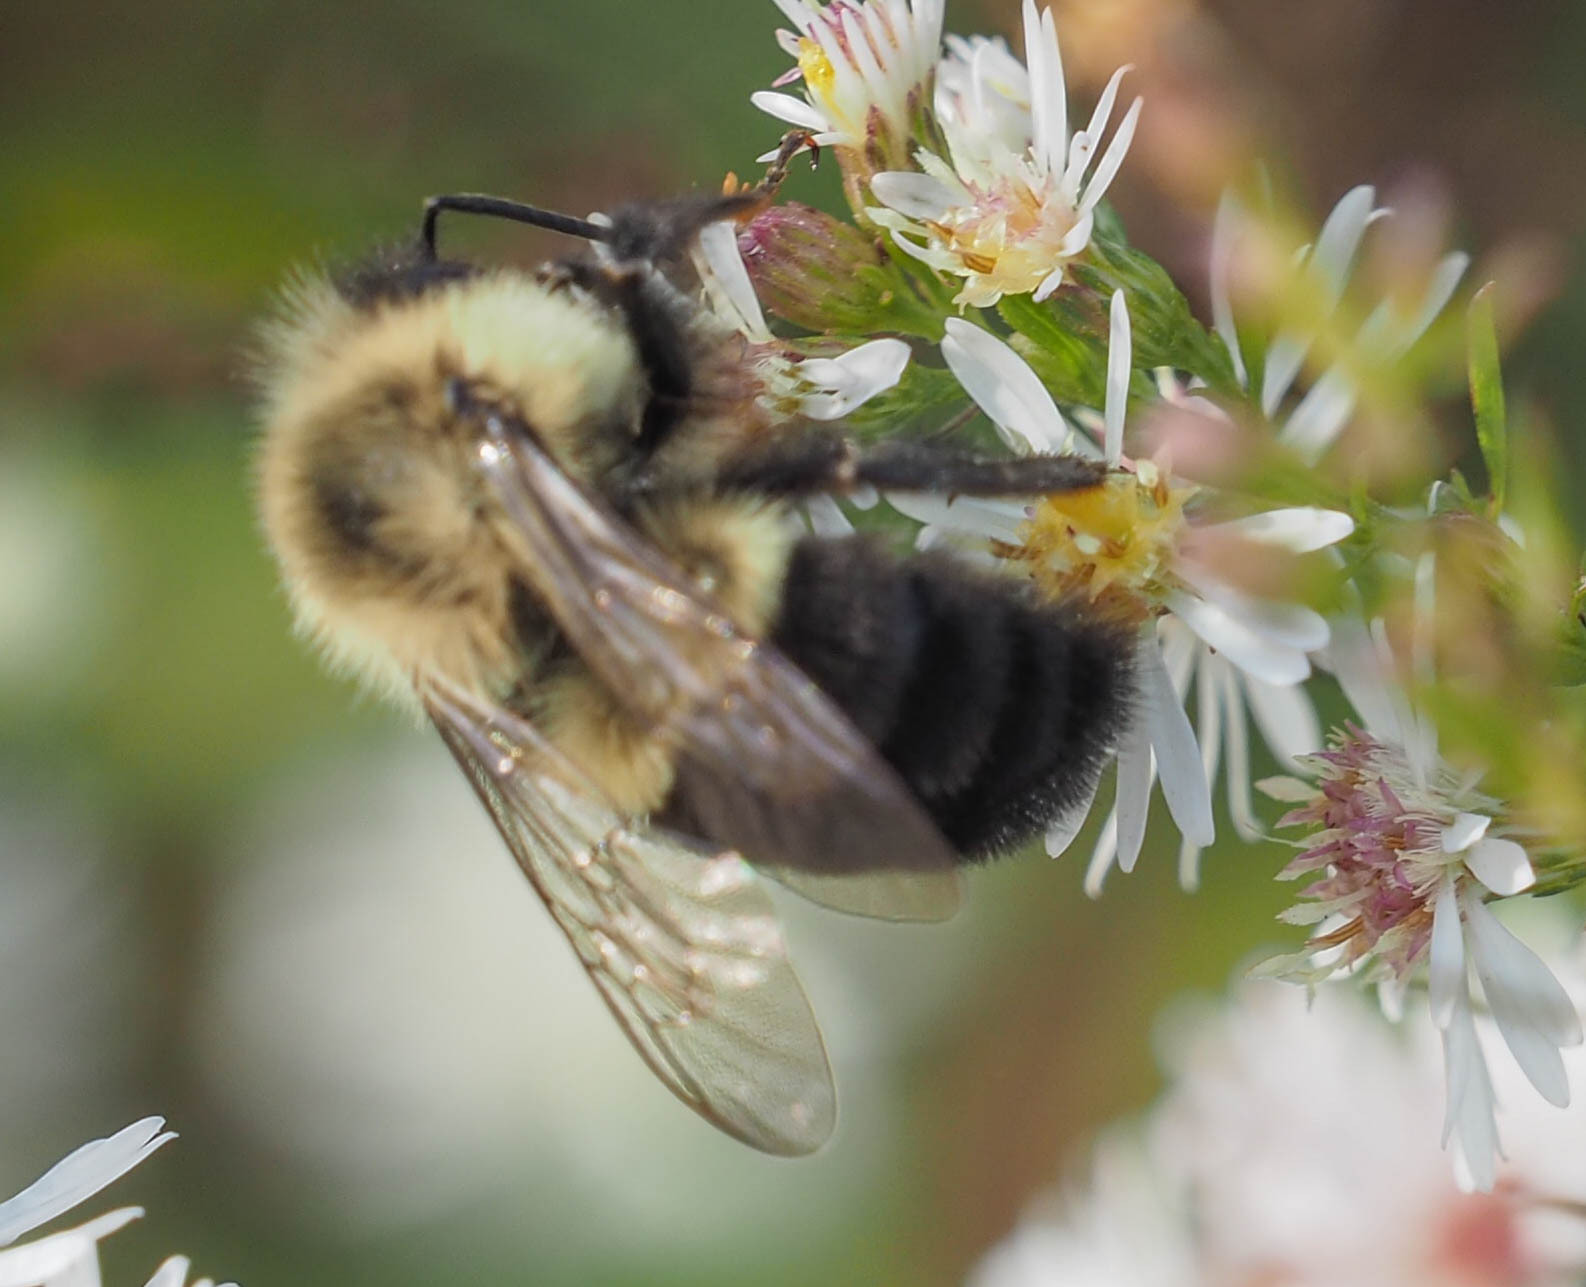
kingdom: Animalia
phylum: Arthropoda
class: Insecta
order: Hymenoptera
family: Apidae
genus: Bombus
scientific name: Bombus impatiens
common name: Common eastern bumble bee
